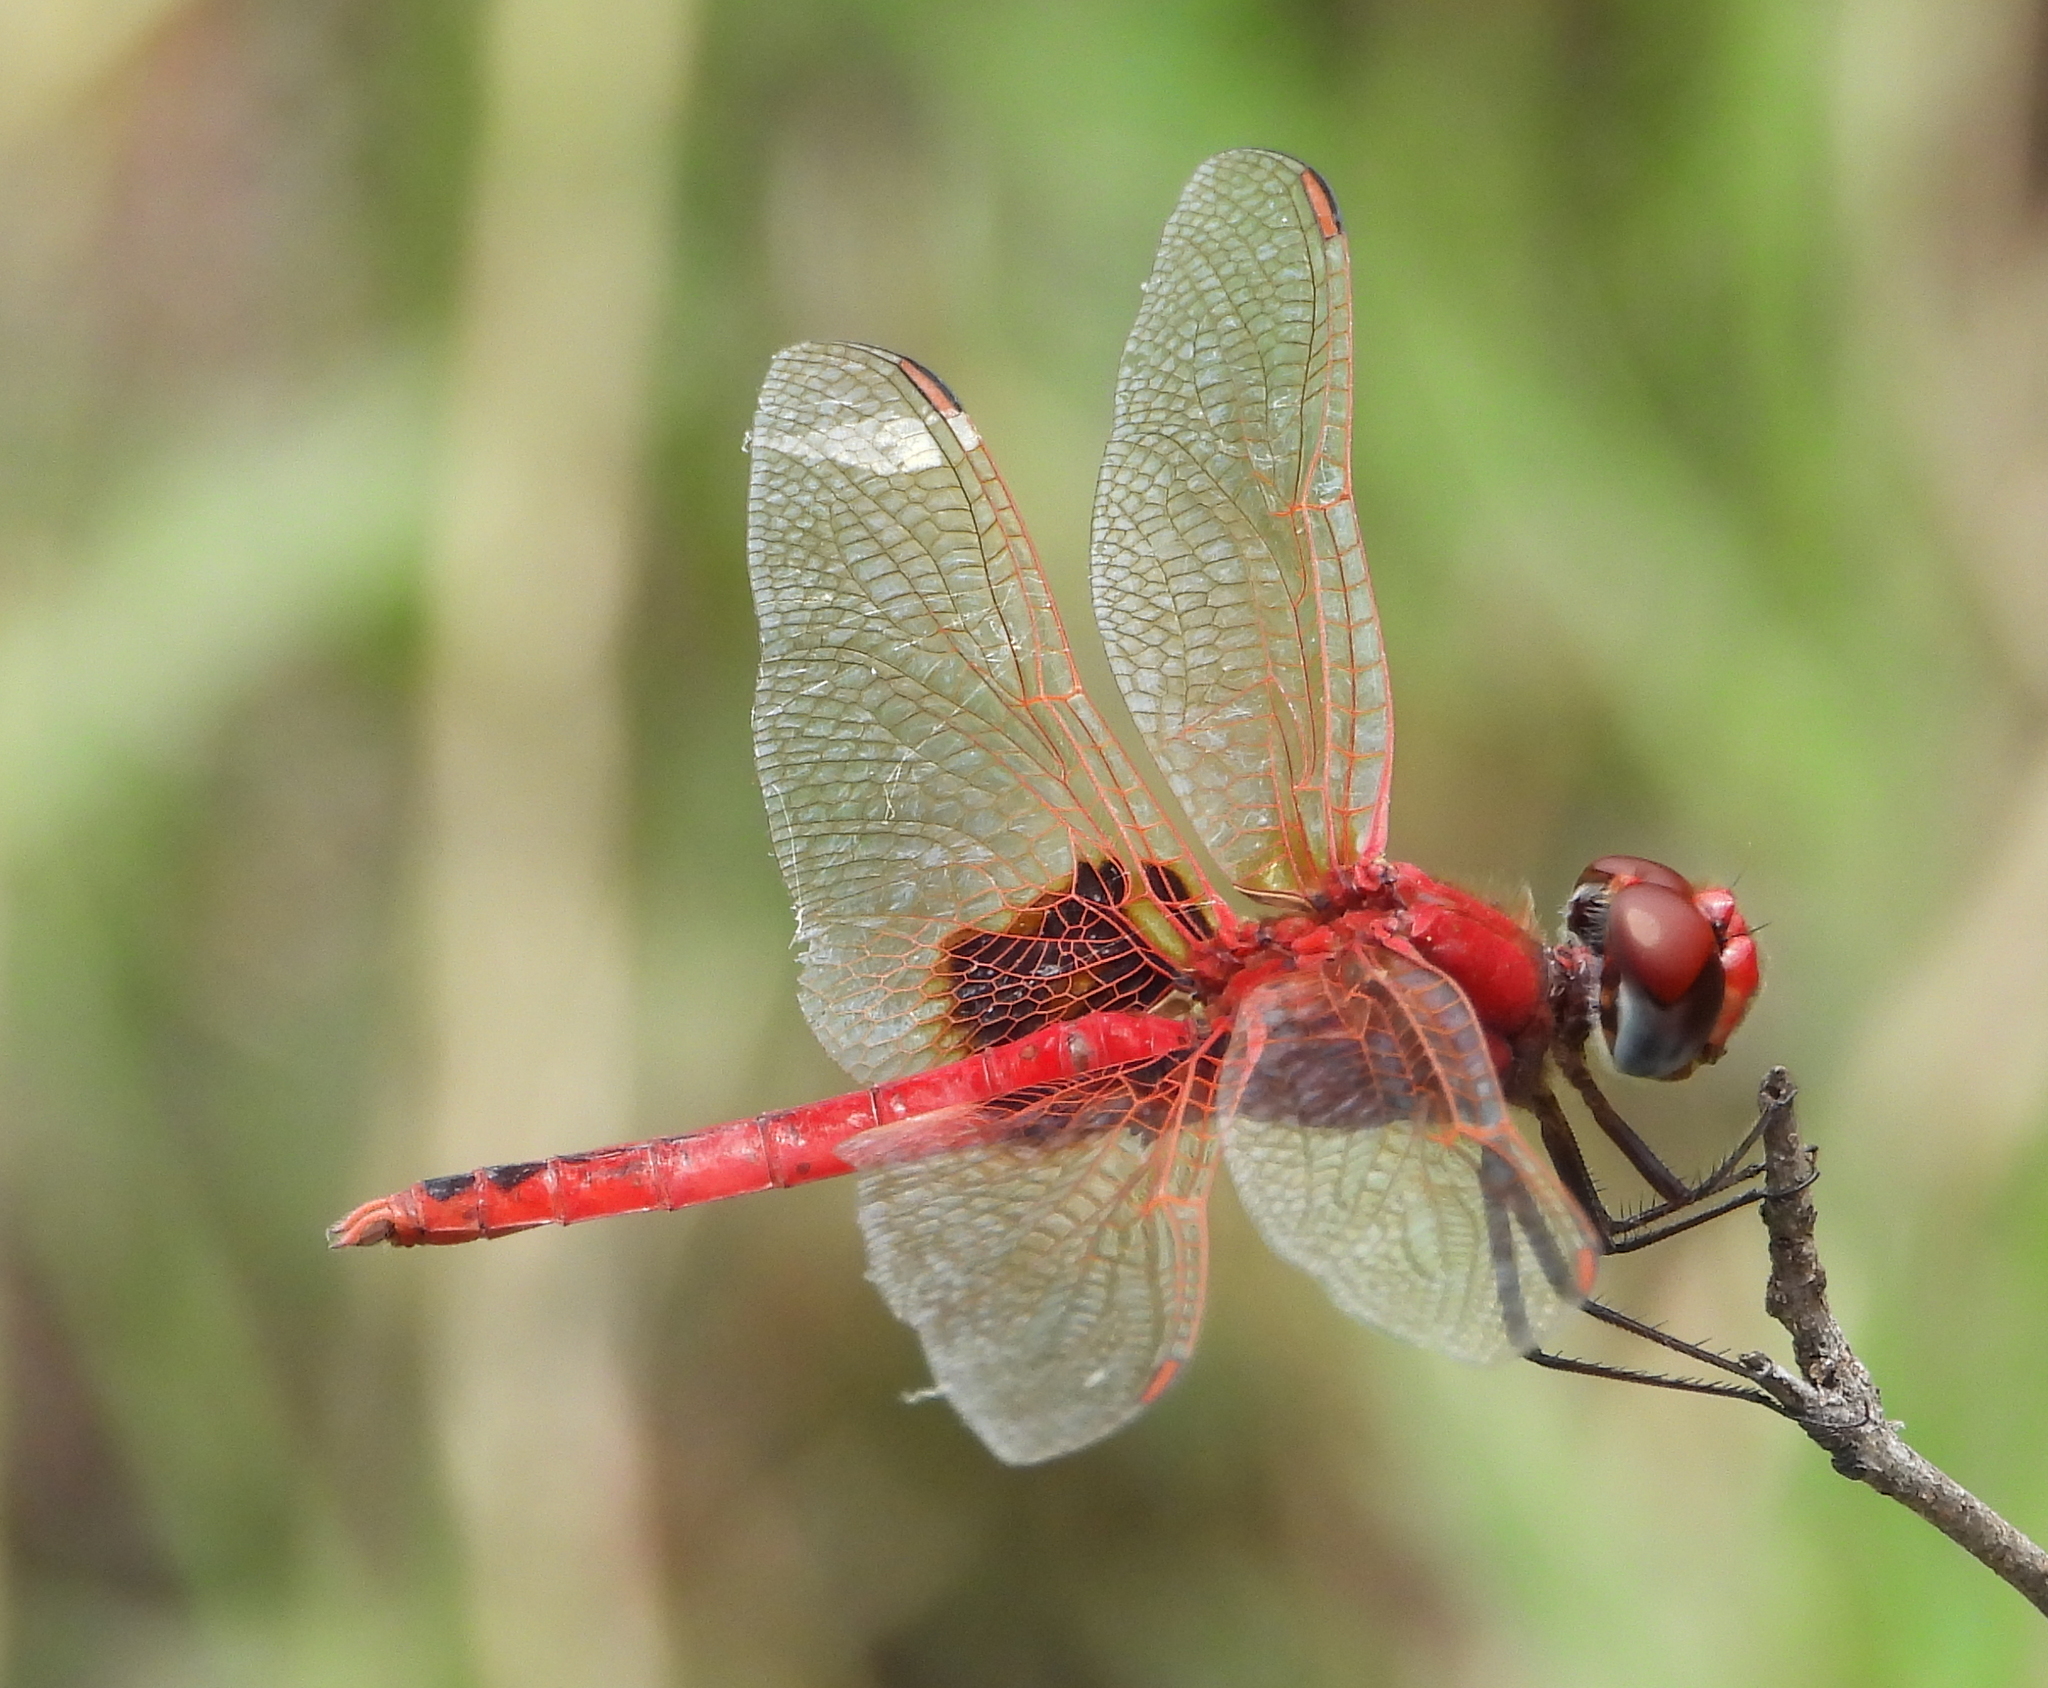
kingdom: Animalia
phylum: Arthropoda
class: Insecta
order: Odonata
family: Libellulidae
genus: Urothemis
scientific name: Urothemis assignata
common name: Red basker
